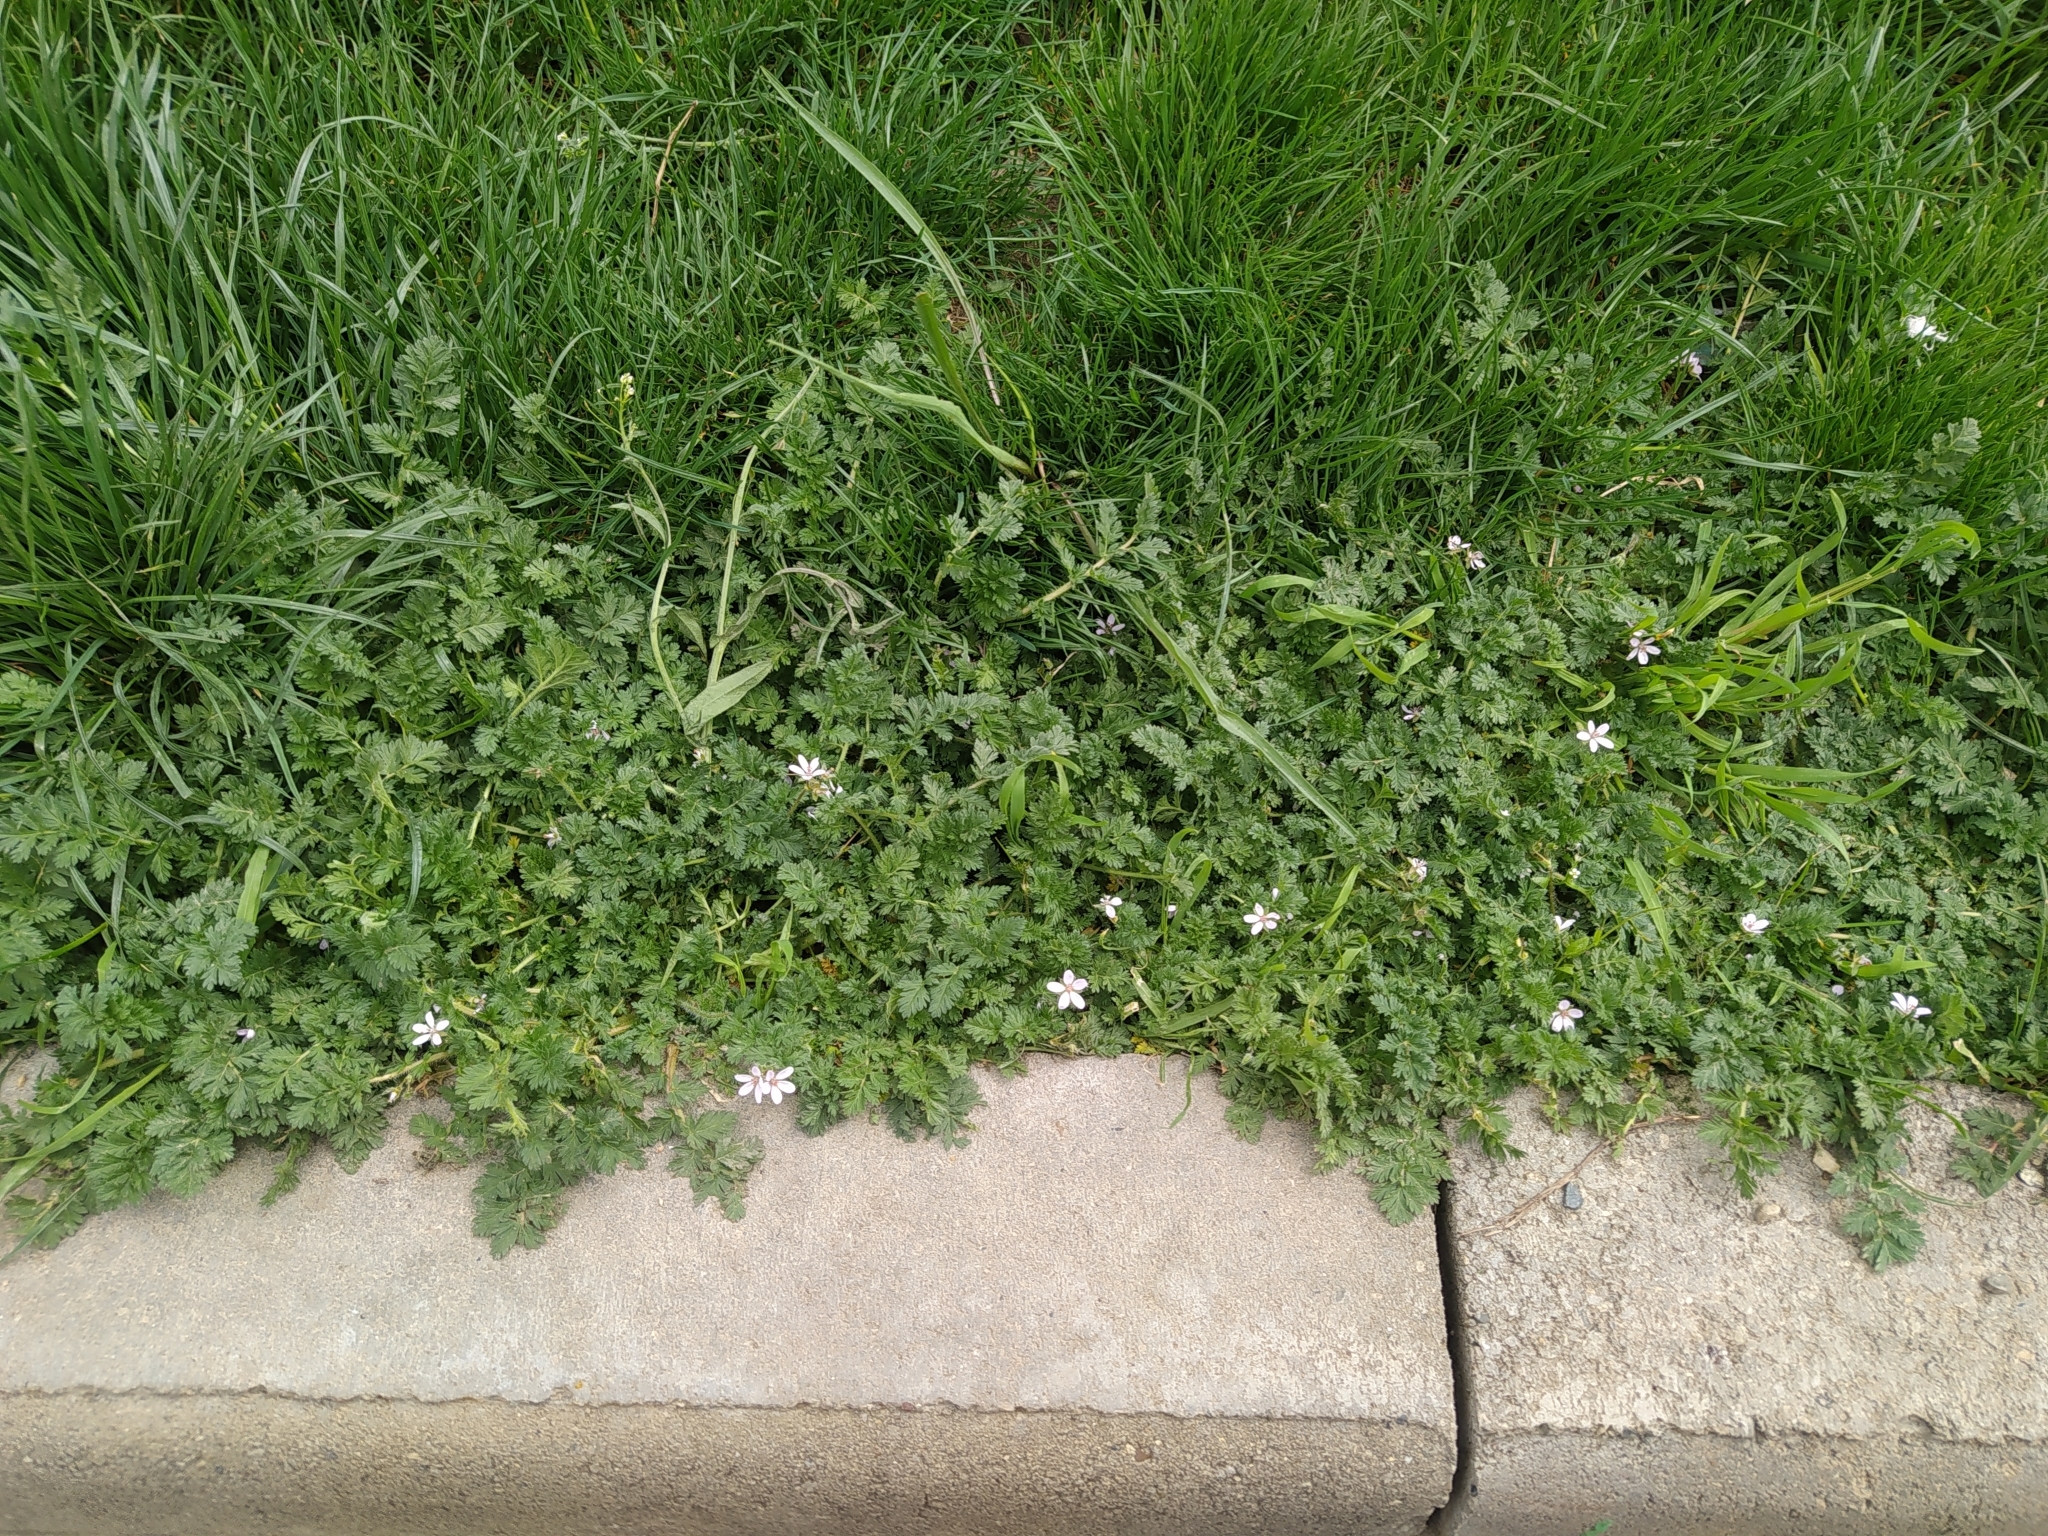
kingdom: Plantae
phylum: Tracheophyta
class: Magnoliopsida
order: Geraniales
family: Geraniaceae
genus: Erodium
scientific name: Erodium cicutarium
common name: Common stork's-bill
